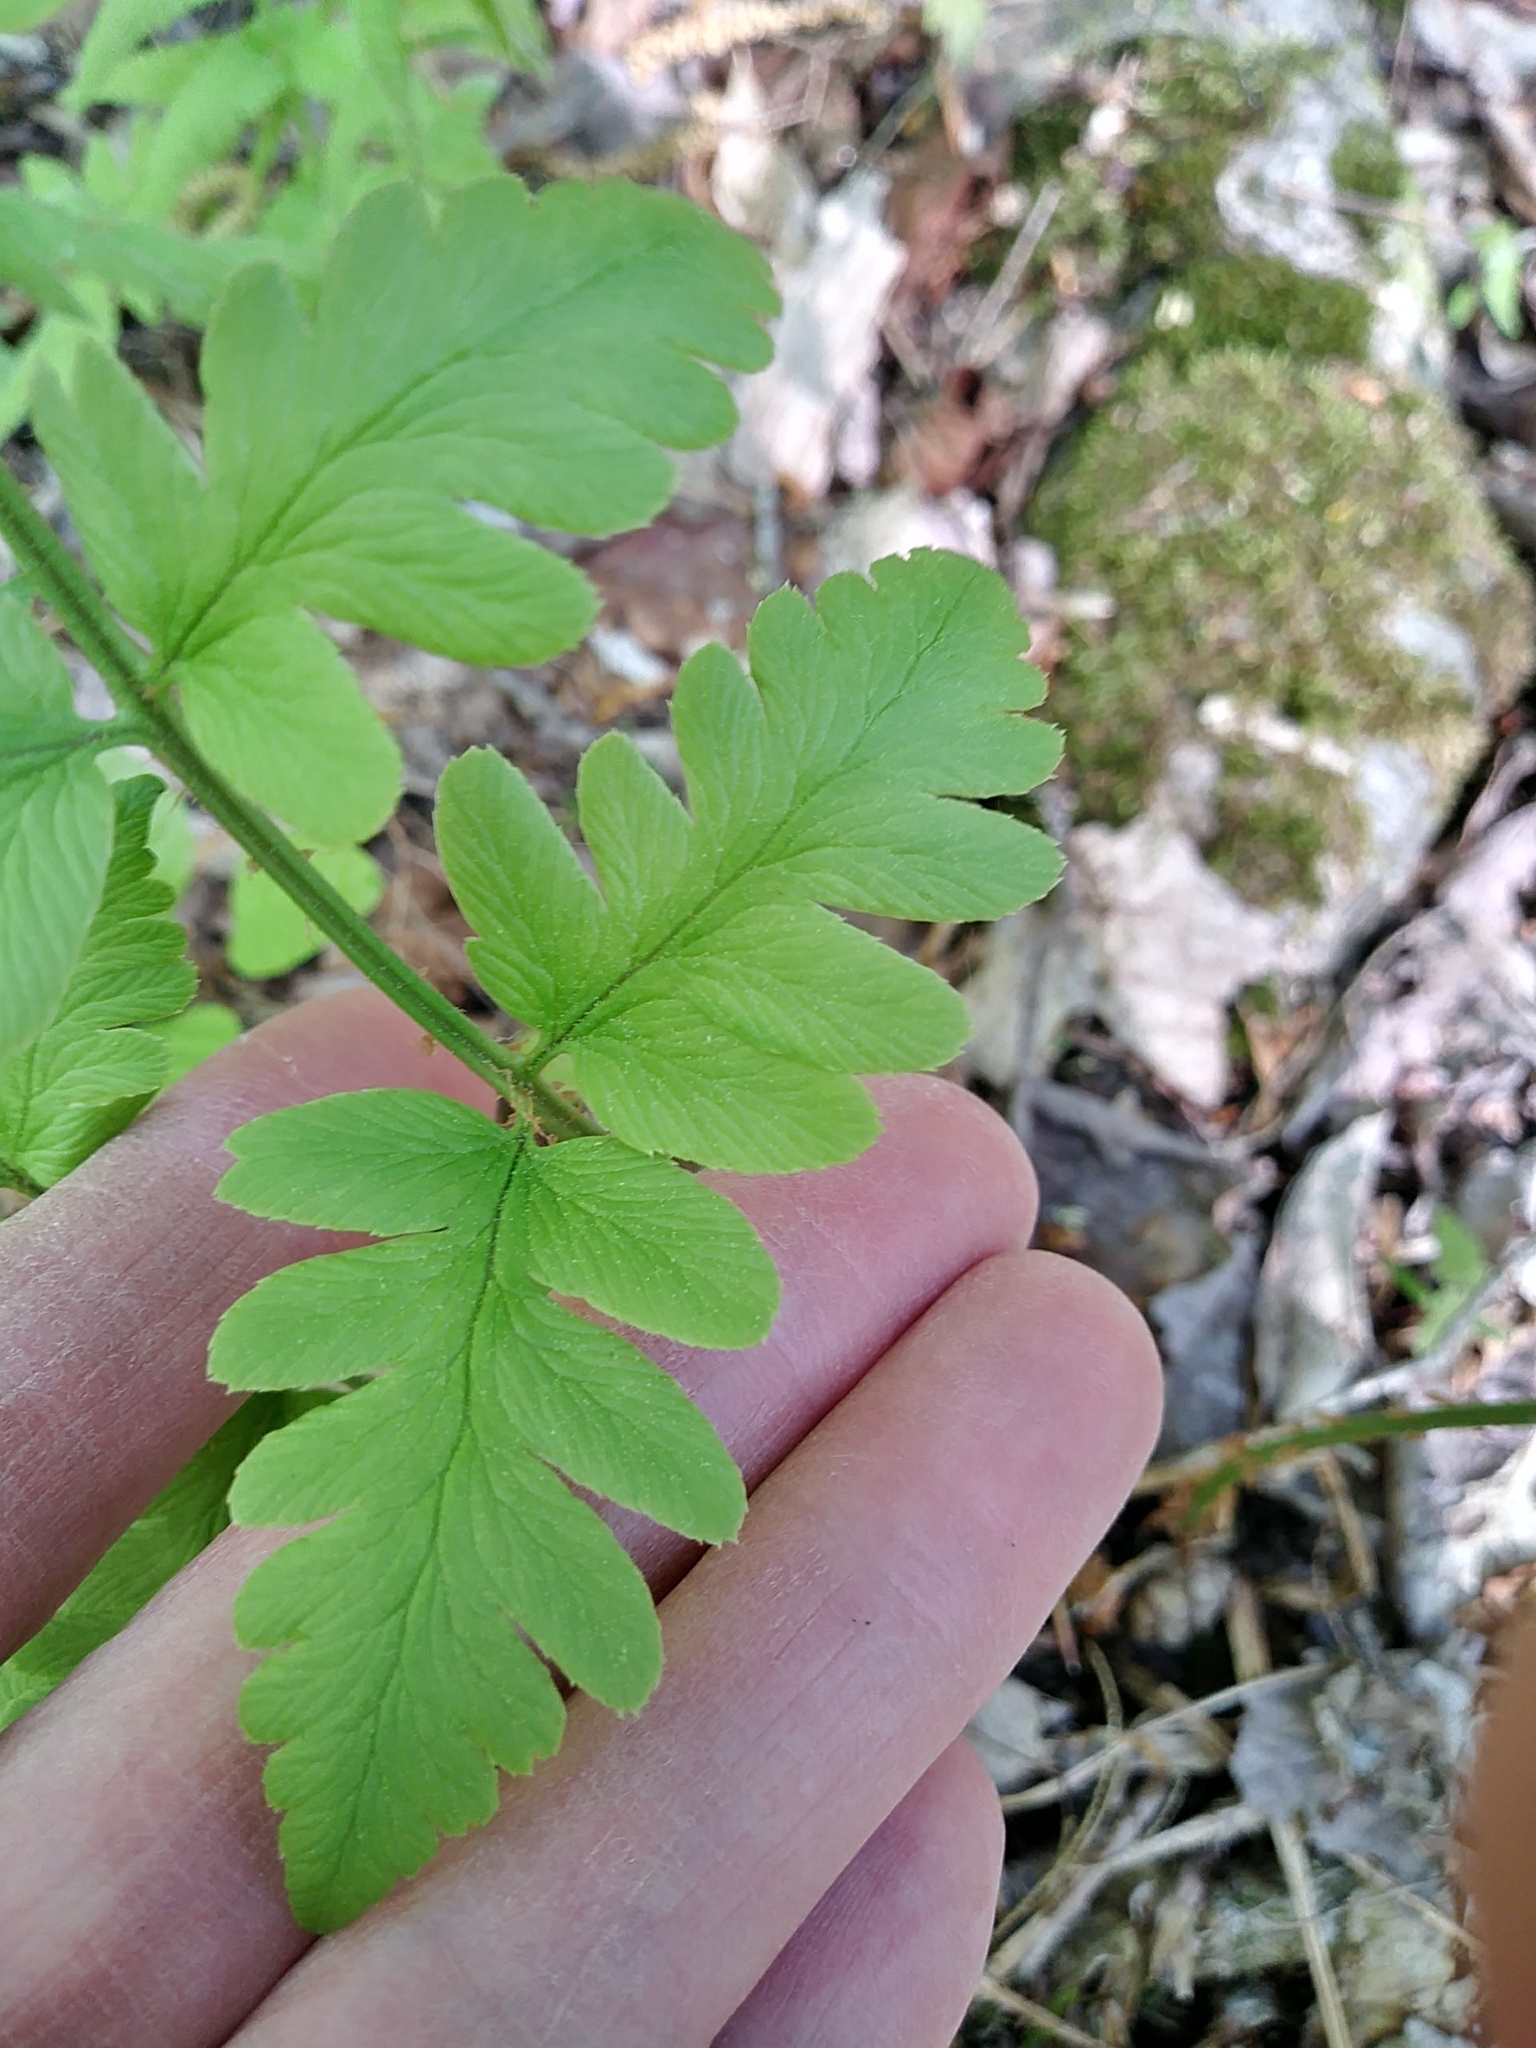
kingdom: Plantae
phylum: Tracheophyta
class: Polypodiopsida
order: Polypodiales
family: Dryopteridaceae
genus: Dryopteris
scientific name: Dryopteris cristata
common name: Crested wood fern
